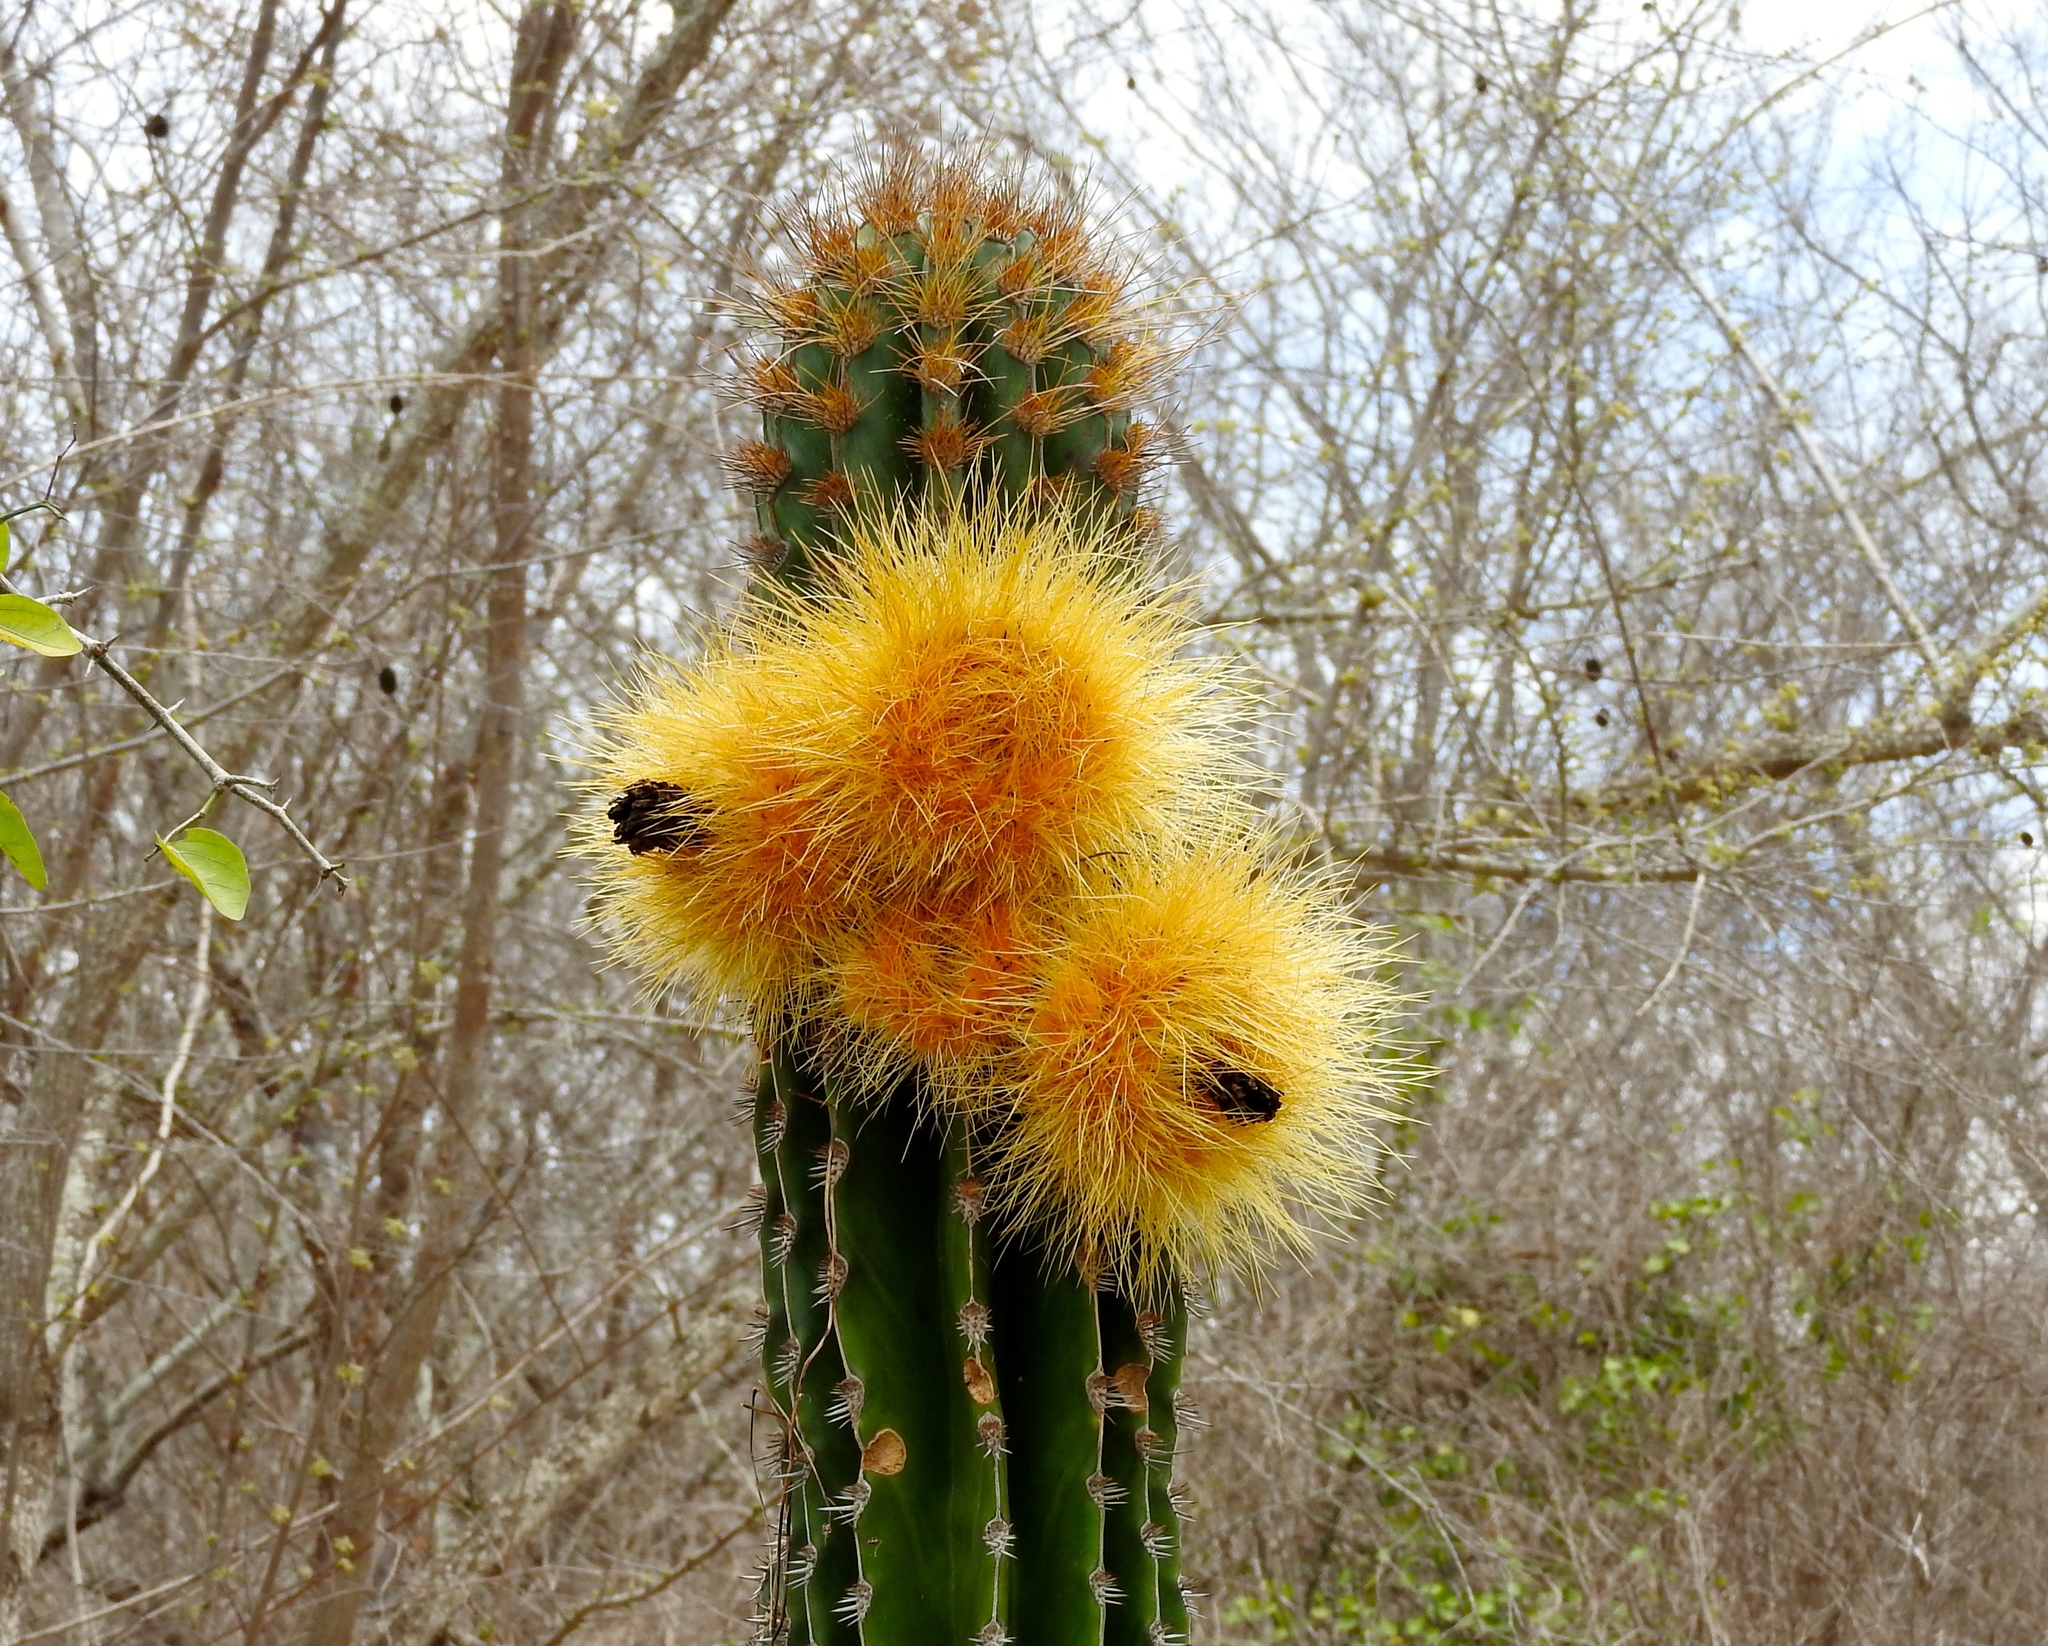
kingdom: Plantae
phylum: Tracheophyta
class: Magnoliopsida
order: Caryophyllales
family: Cactaceae
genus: Pachycereus
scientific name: Pachycereus pecten-aboriginum
